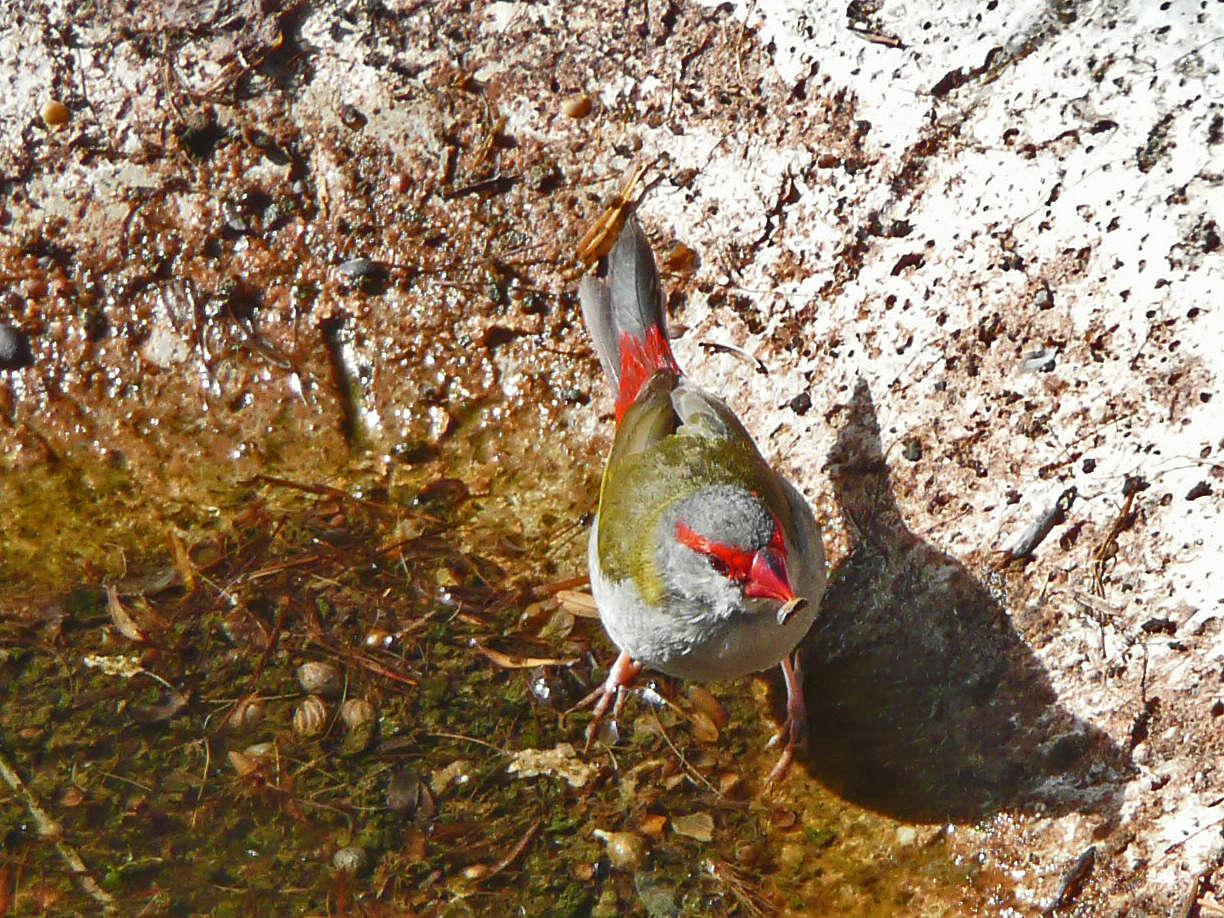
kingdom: Animalia
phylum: Chordata
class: Aves
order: Passeriformes
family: Estrildidae
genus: Neochmia
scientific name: Neochmia temporalis
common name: Red-browed finch
